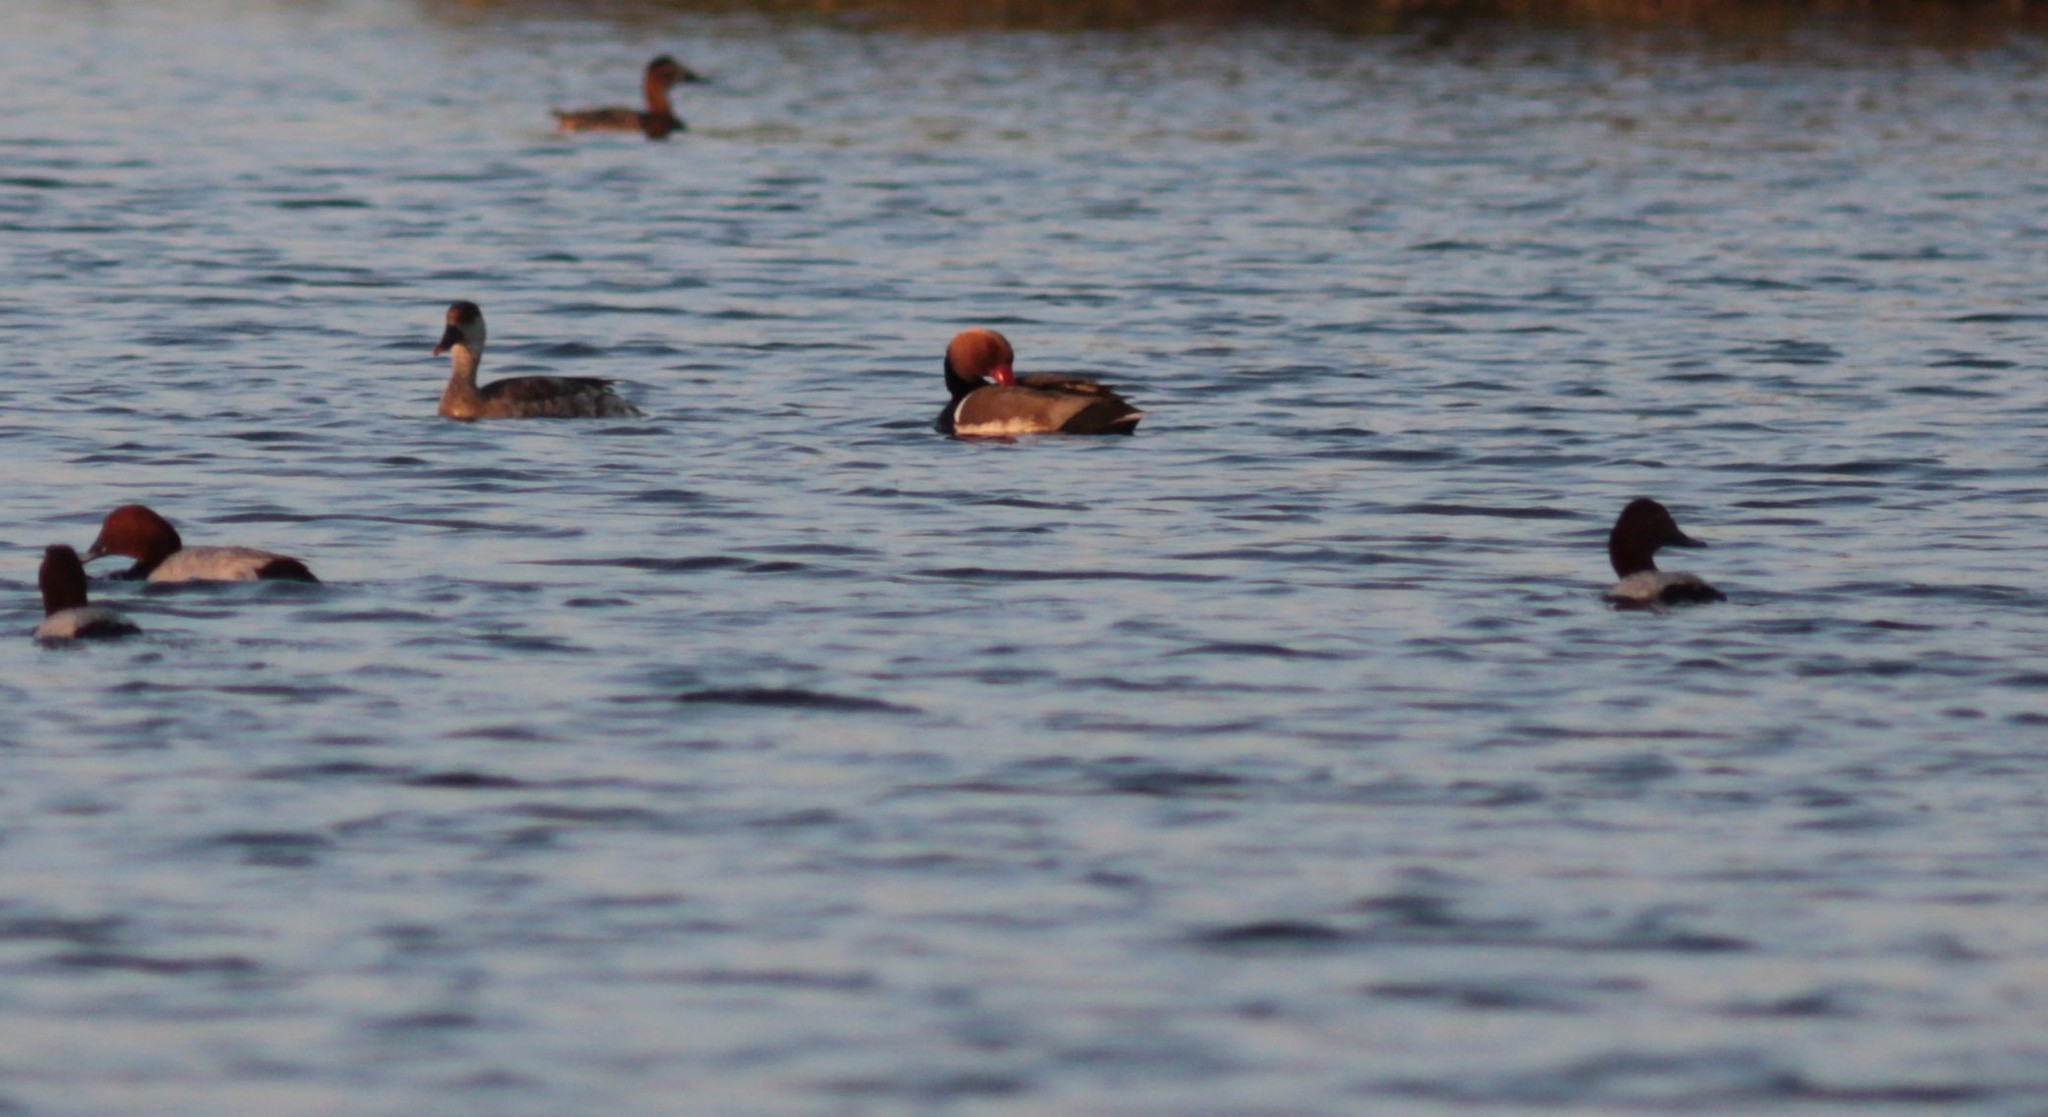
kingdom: Animalia
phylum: Chordata
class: Aves
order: Anseriformes
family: Anatidae
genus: Netta
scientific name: Netta rufina
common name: Red-crested pochard
